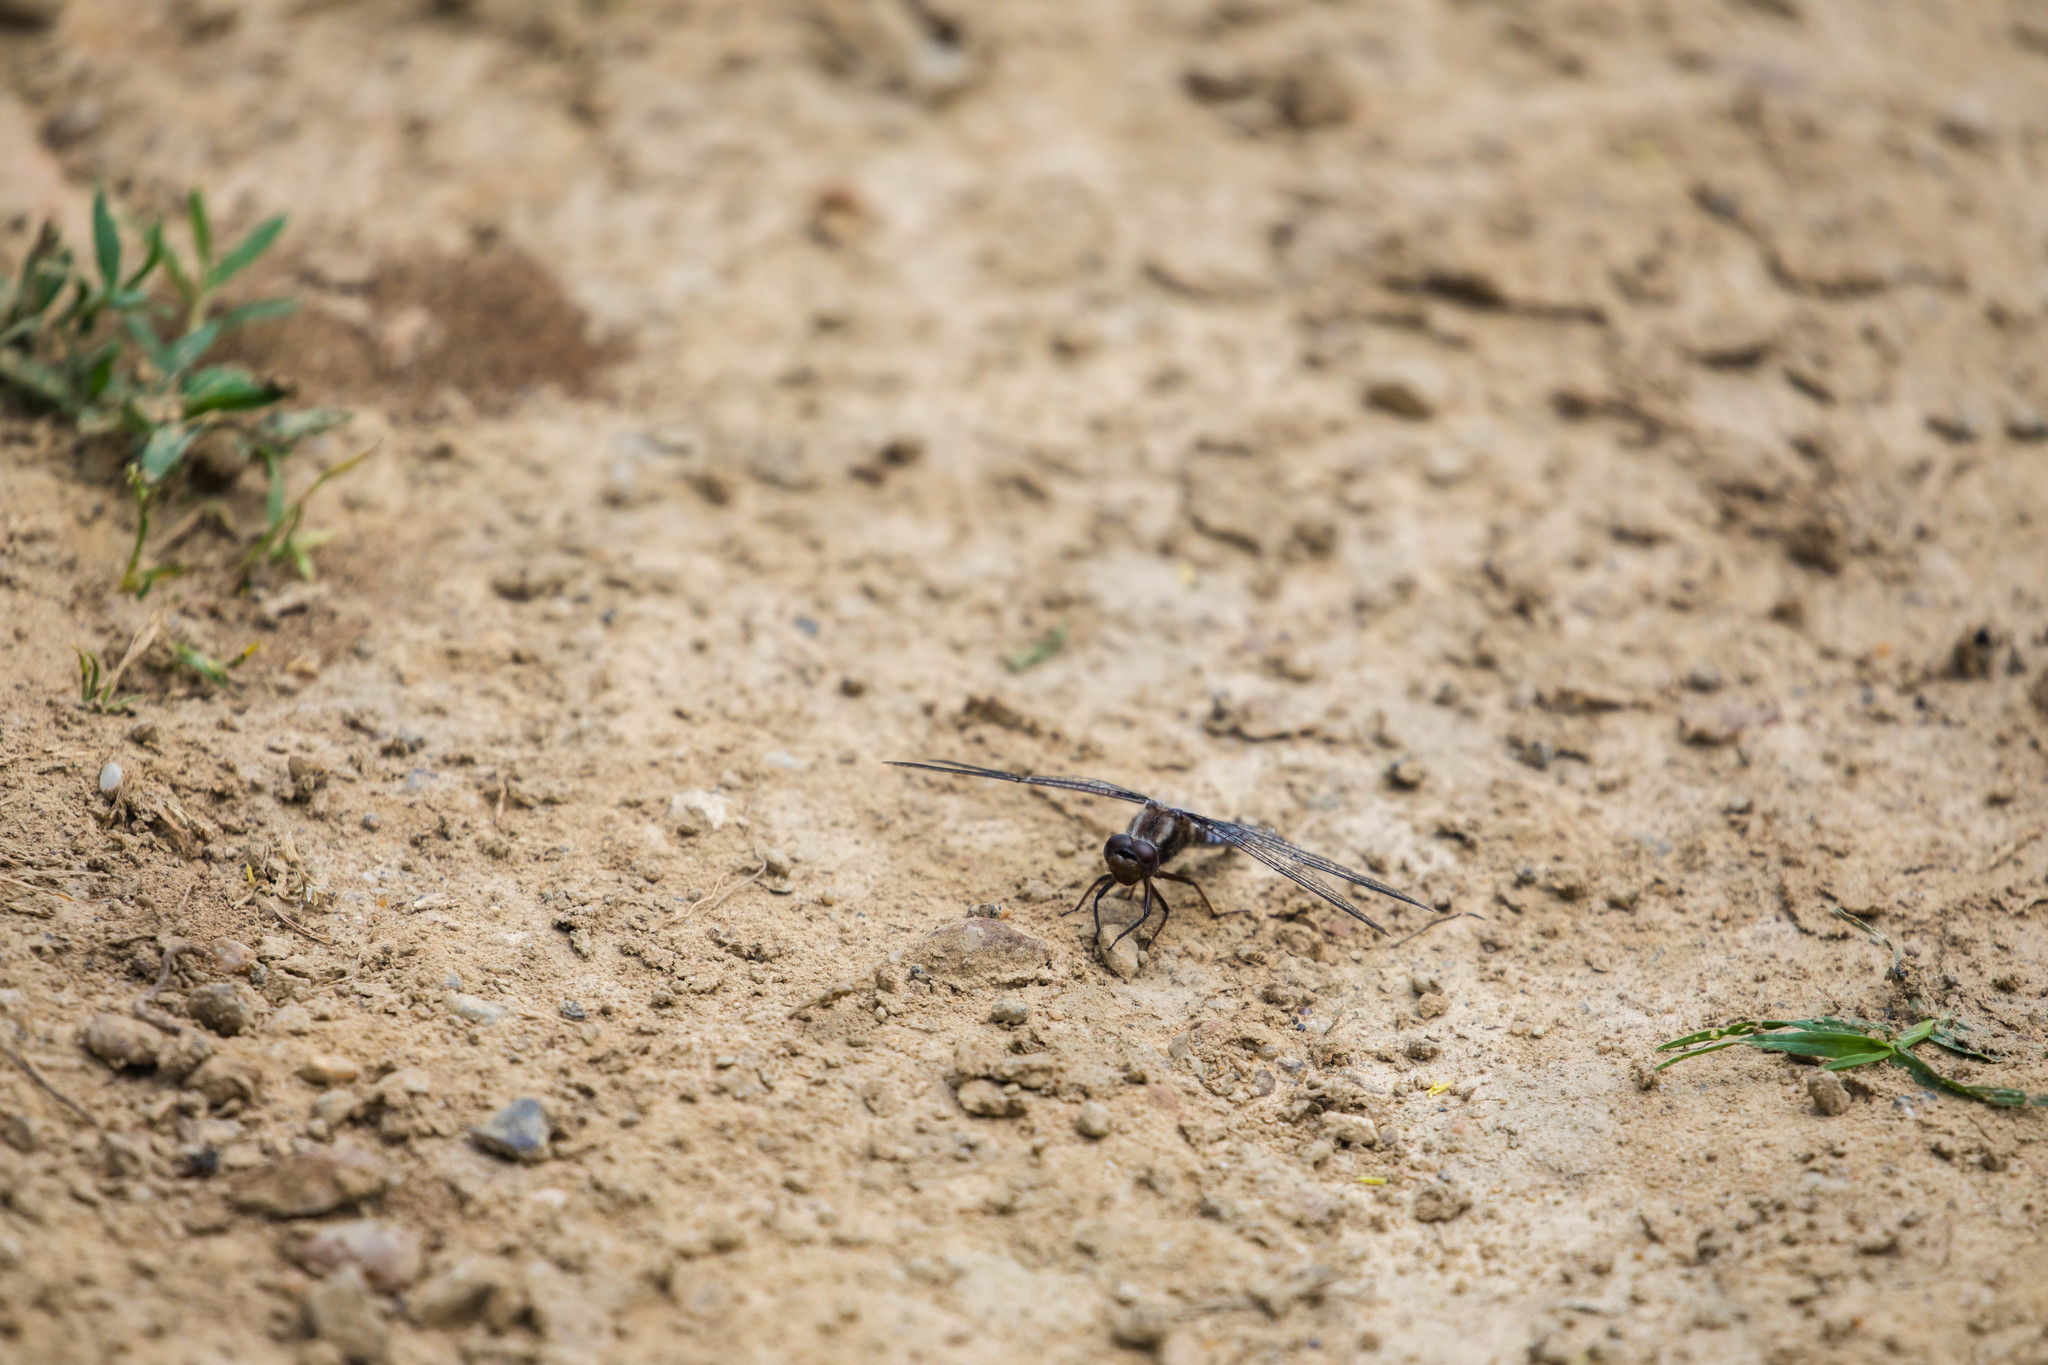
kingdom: Animalia
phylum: Arthropoda
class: Insecta
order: Odonata
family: Libellulidae
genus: Ladona
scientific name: Ladona deplanata
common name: Blue corporal
